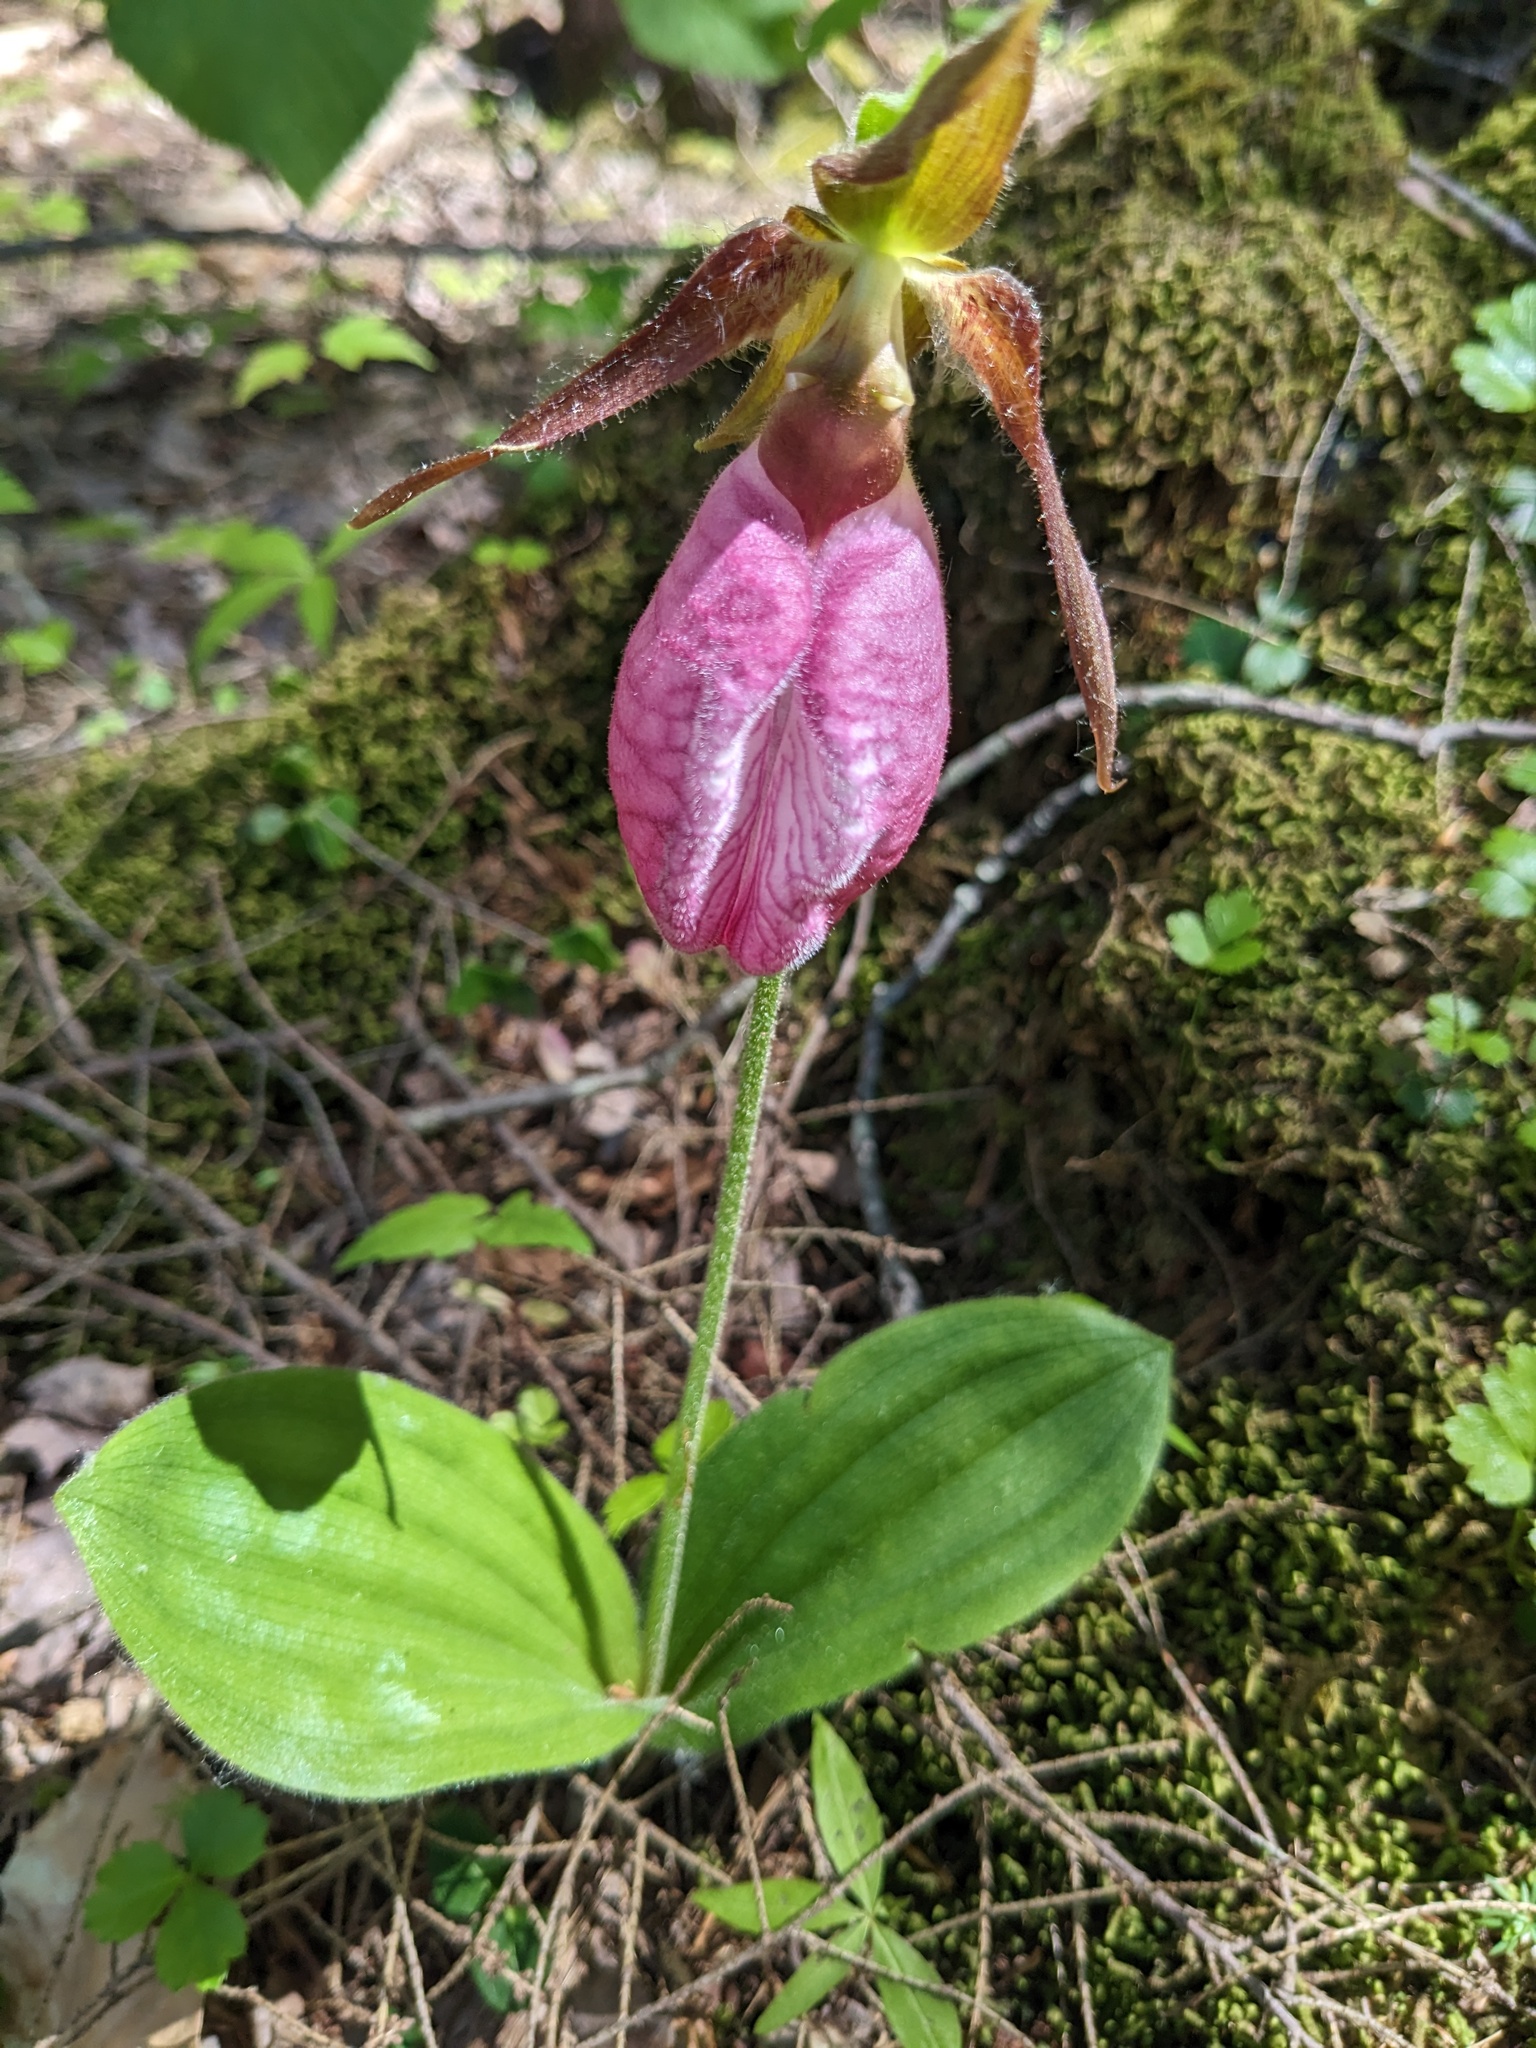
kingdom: Plantae
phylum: Tracheophyta
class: Liliopsida
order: Asparagales
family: Orchidaceae
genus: Cypripedium
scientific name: Cypripedium acaule
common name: Pink lady's-slipper
